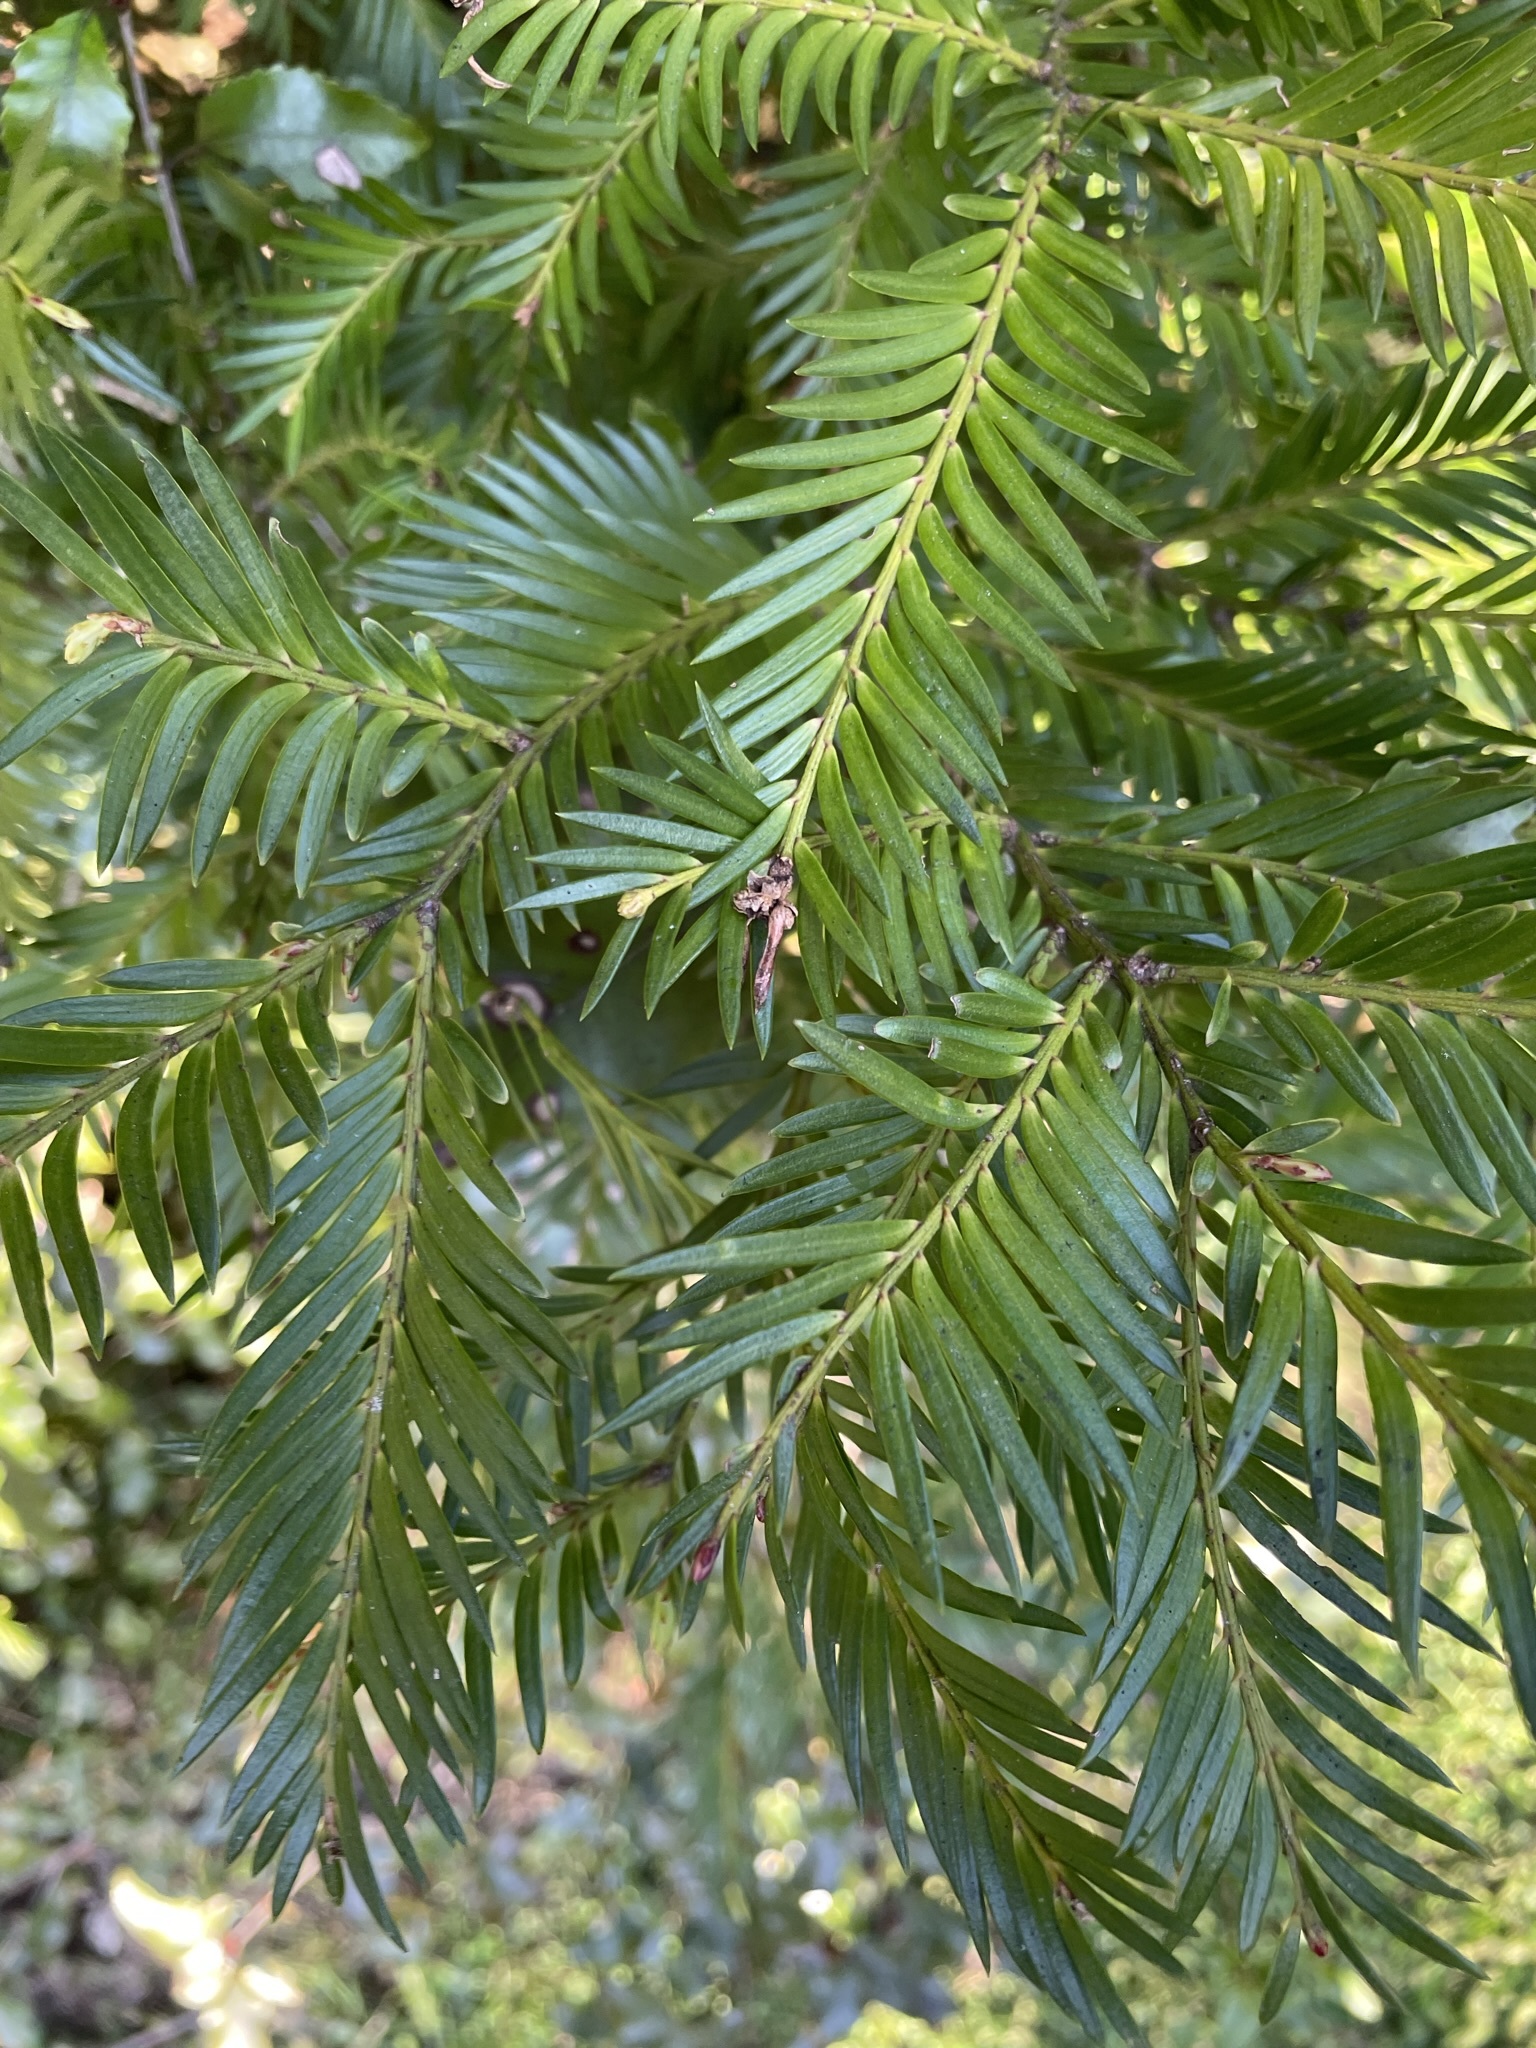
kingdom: Plantae
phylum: Tracheophyta
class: Pinopsida
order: Pinales
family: Podocarpaceae
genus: Prumnopitys
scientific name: Prumnopitys ferruginea
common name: Brown pine
